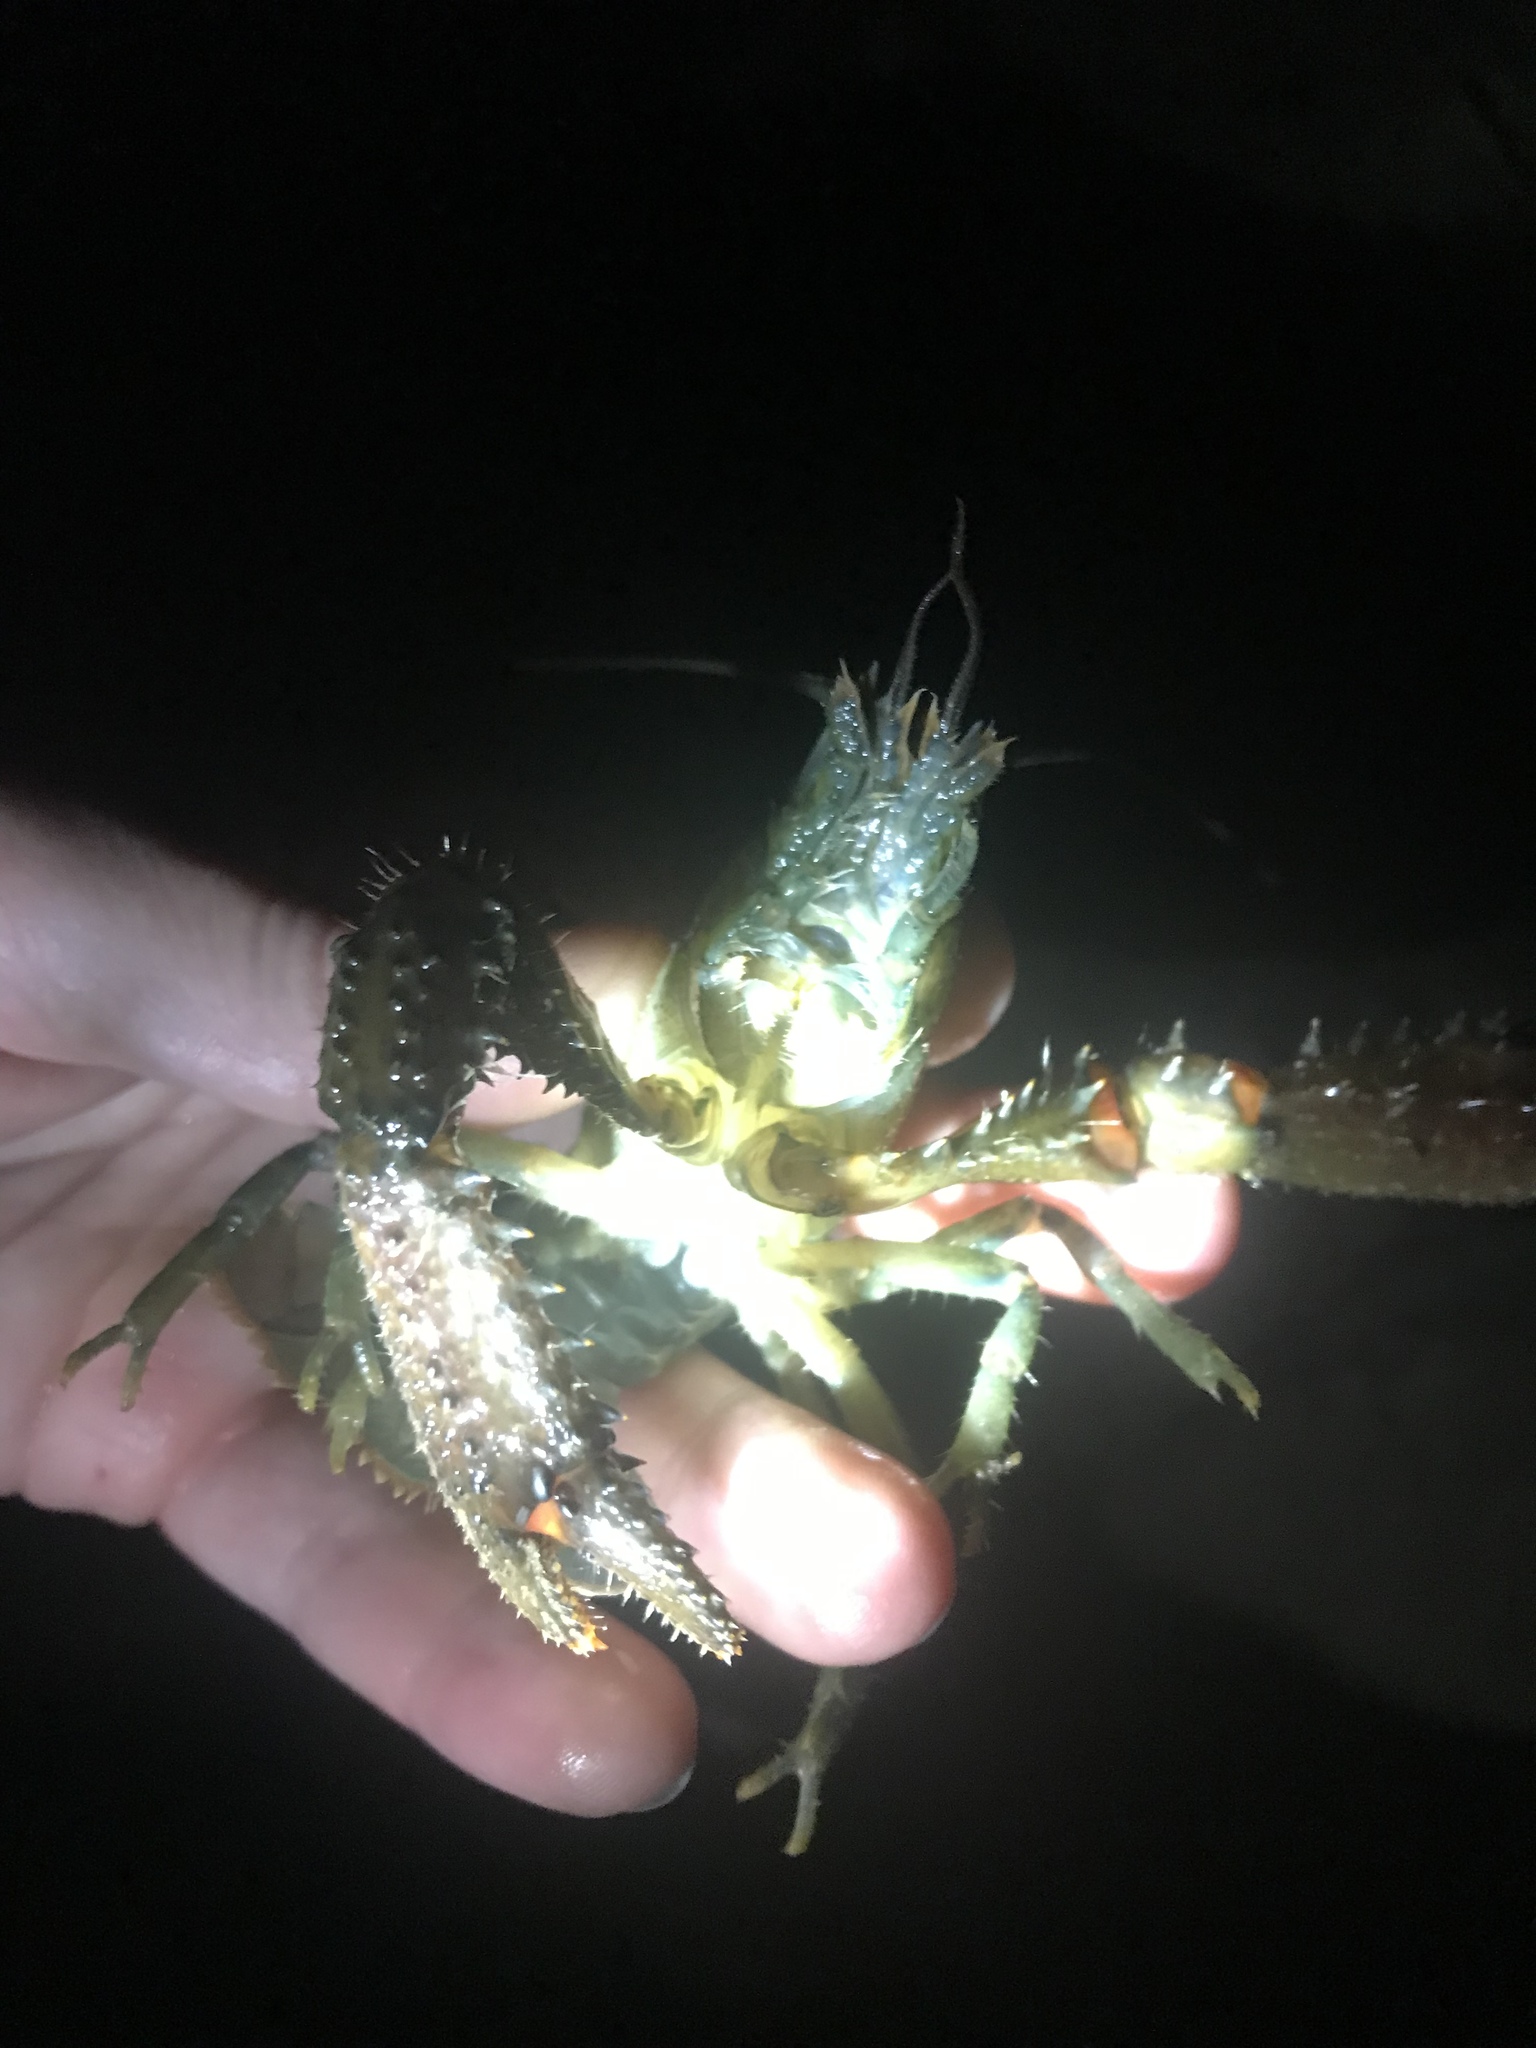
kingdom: Animalia
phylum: Arthropoda
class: Malacostraca
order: Decapoda
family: Parastacidae
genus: Paranephrops
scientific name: Paranephrops planifrons
